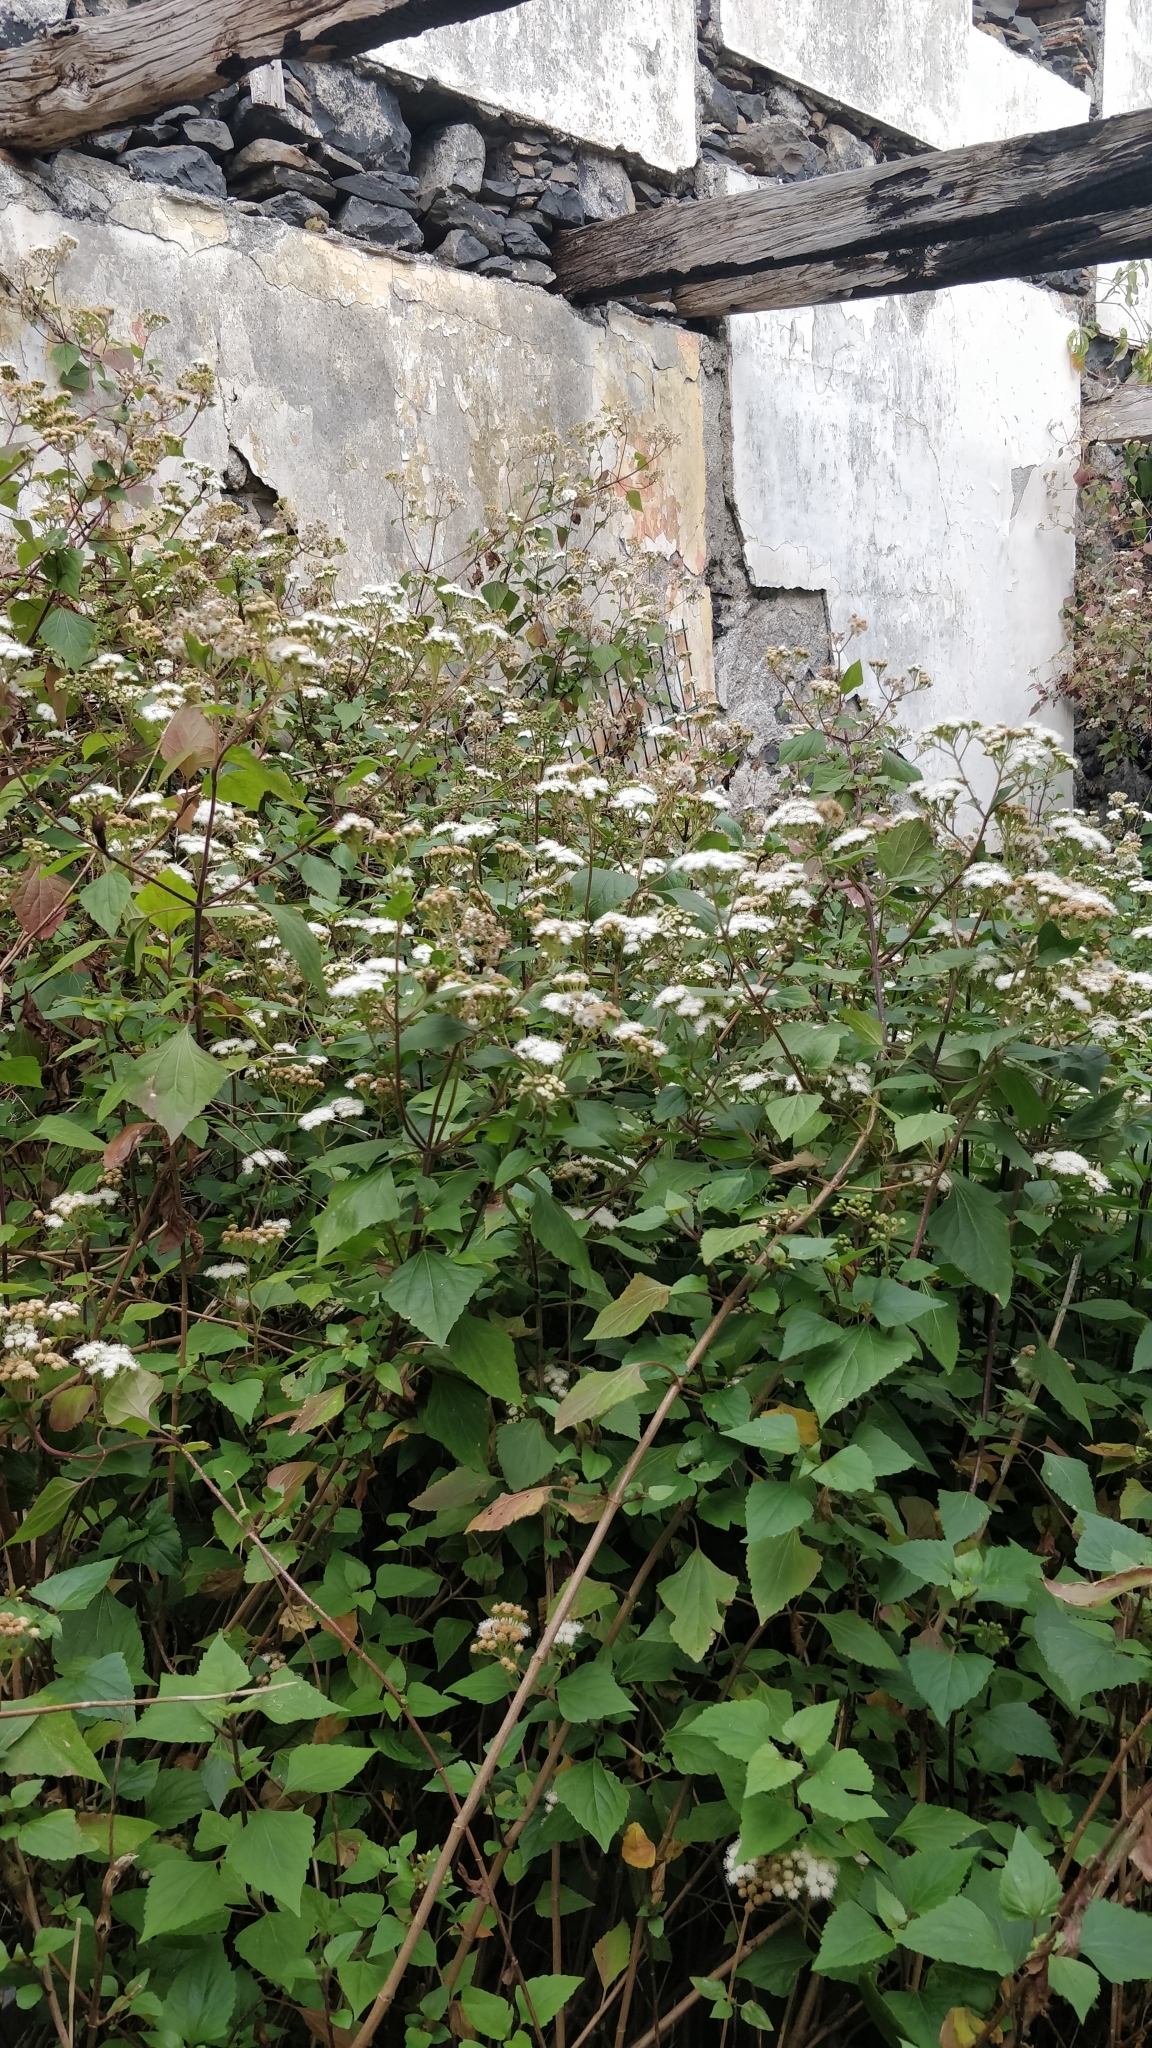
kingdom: Plantae
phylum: Tracheophyta
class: Magnoliopsida
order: Asterales
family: Asteraceae
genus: Ageratina
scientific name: Ageratina adenophora
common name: Sticky snakeroot
